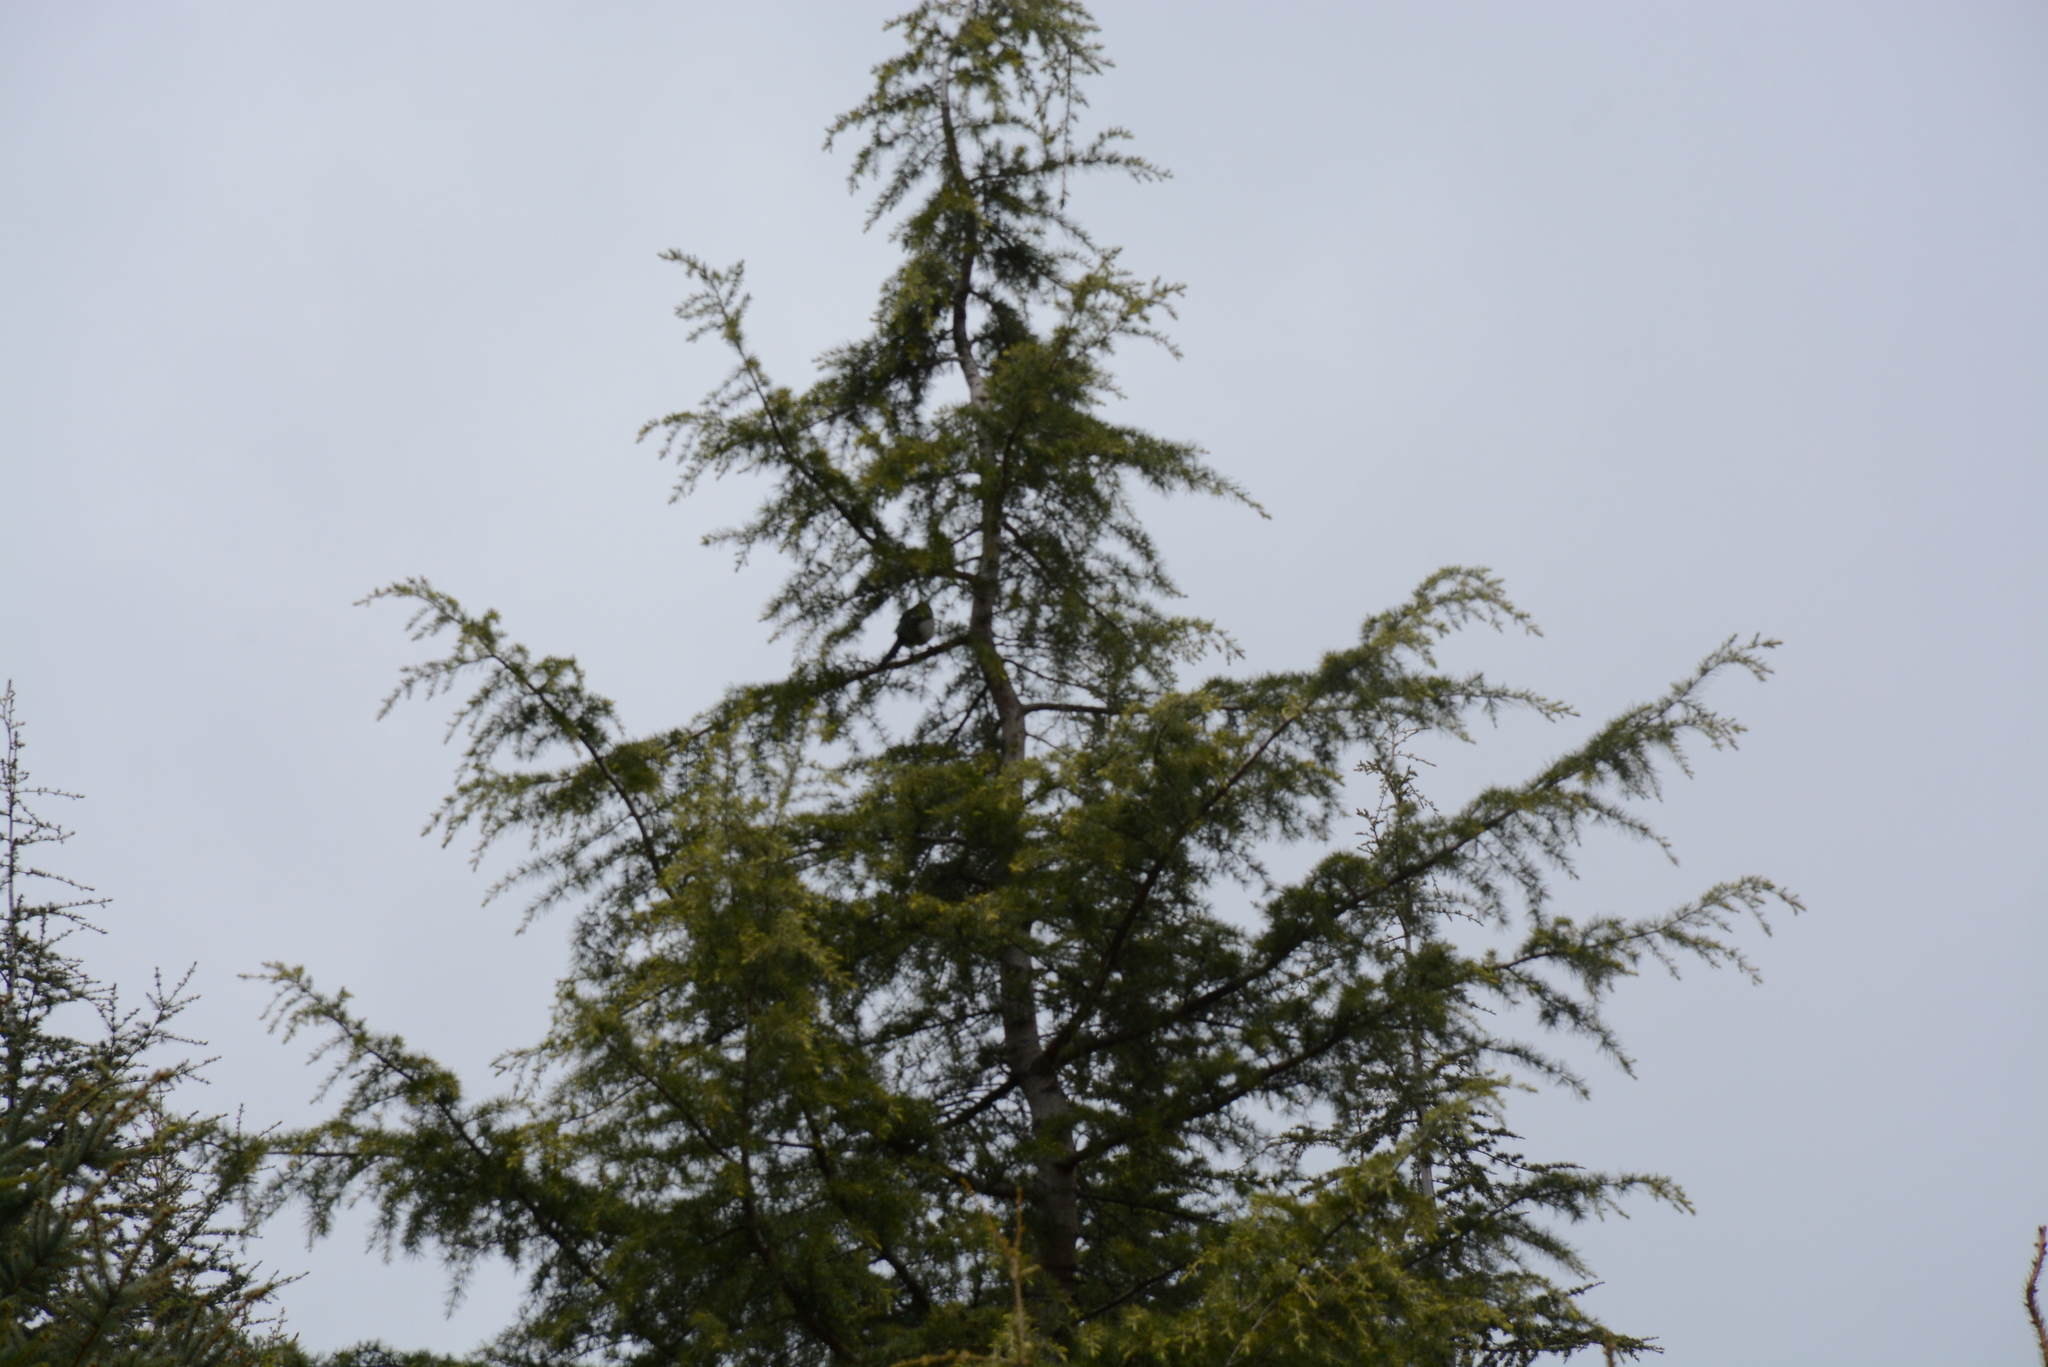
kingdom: Animalia
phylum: Chordata
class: Aves
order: Passeriformes
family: Corvidae
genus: Pica
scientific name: Pica pica
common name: Eurasian magpie
